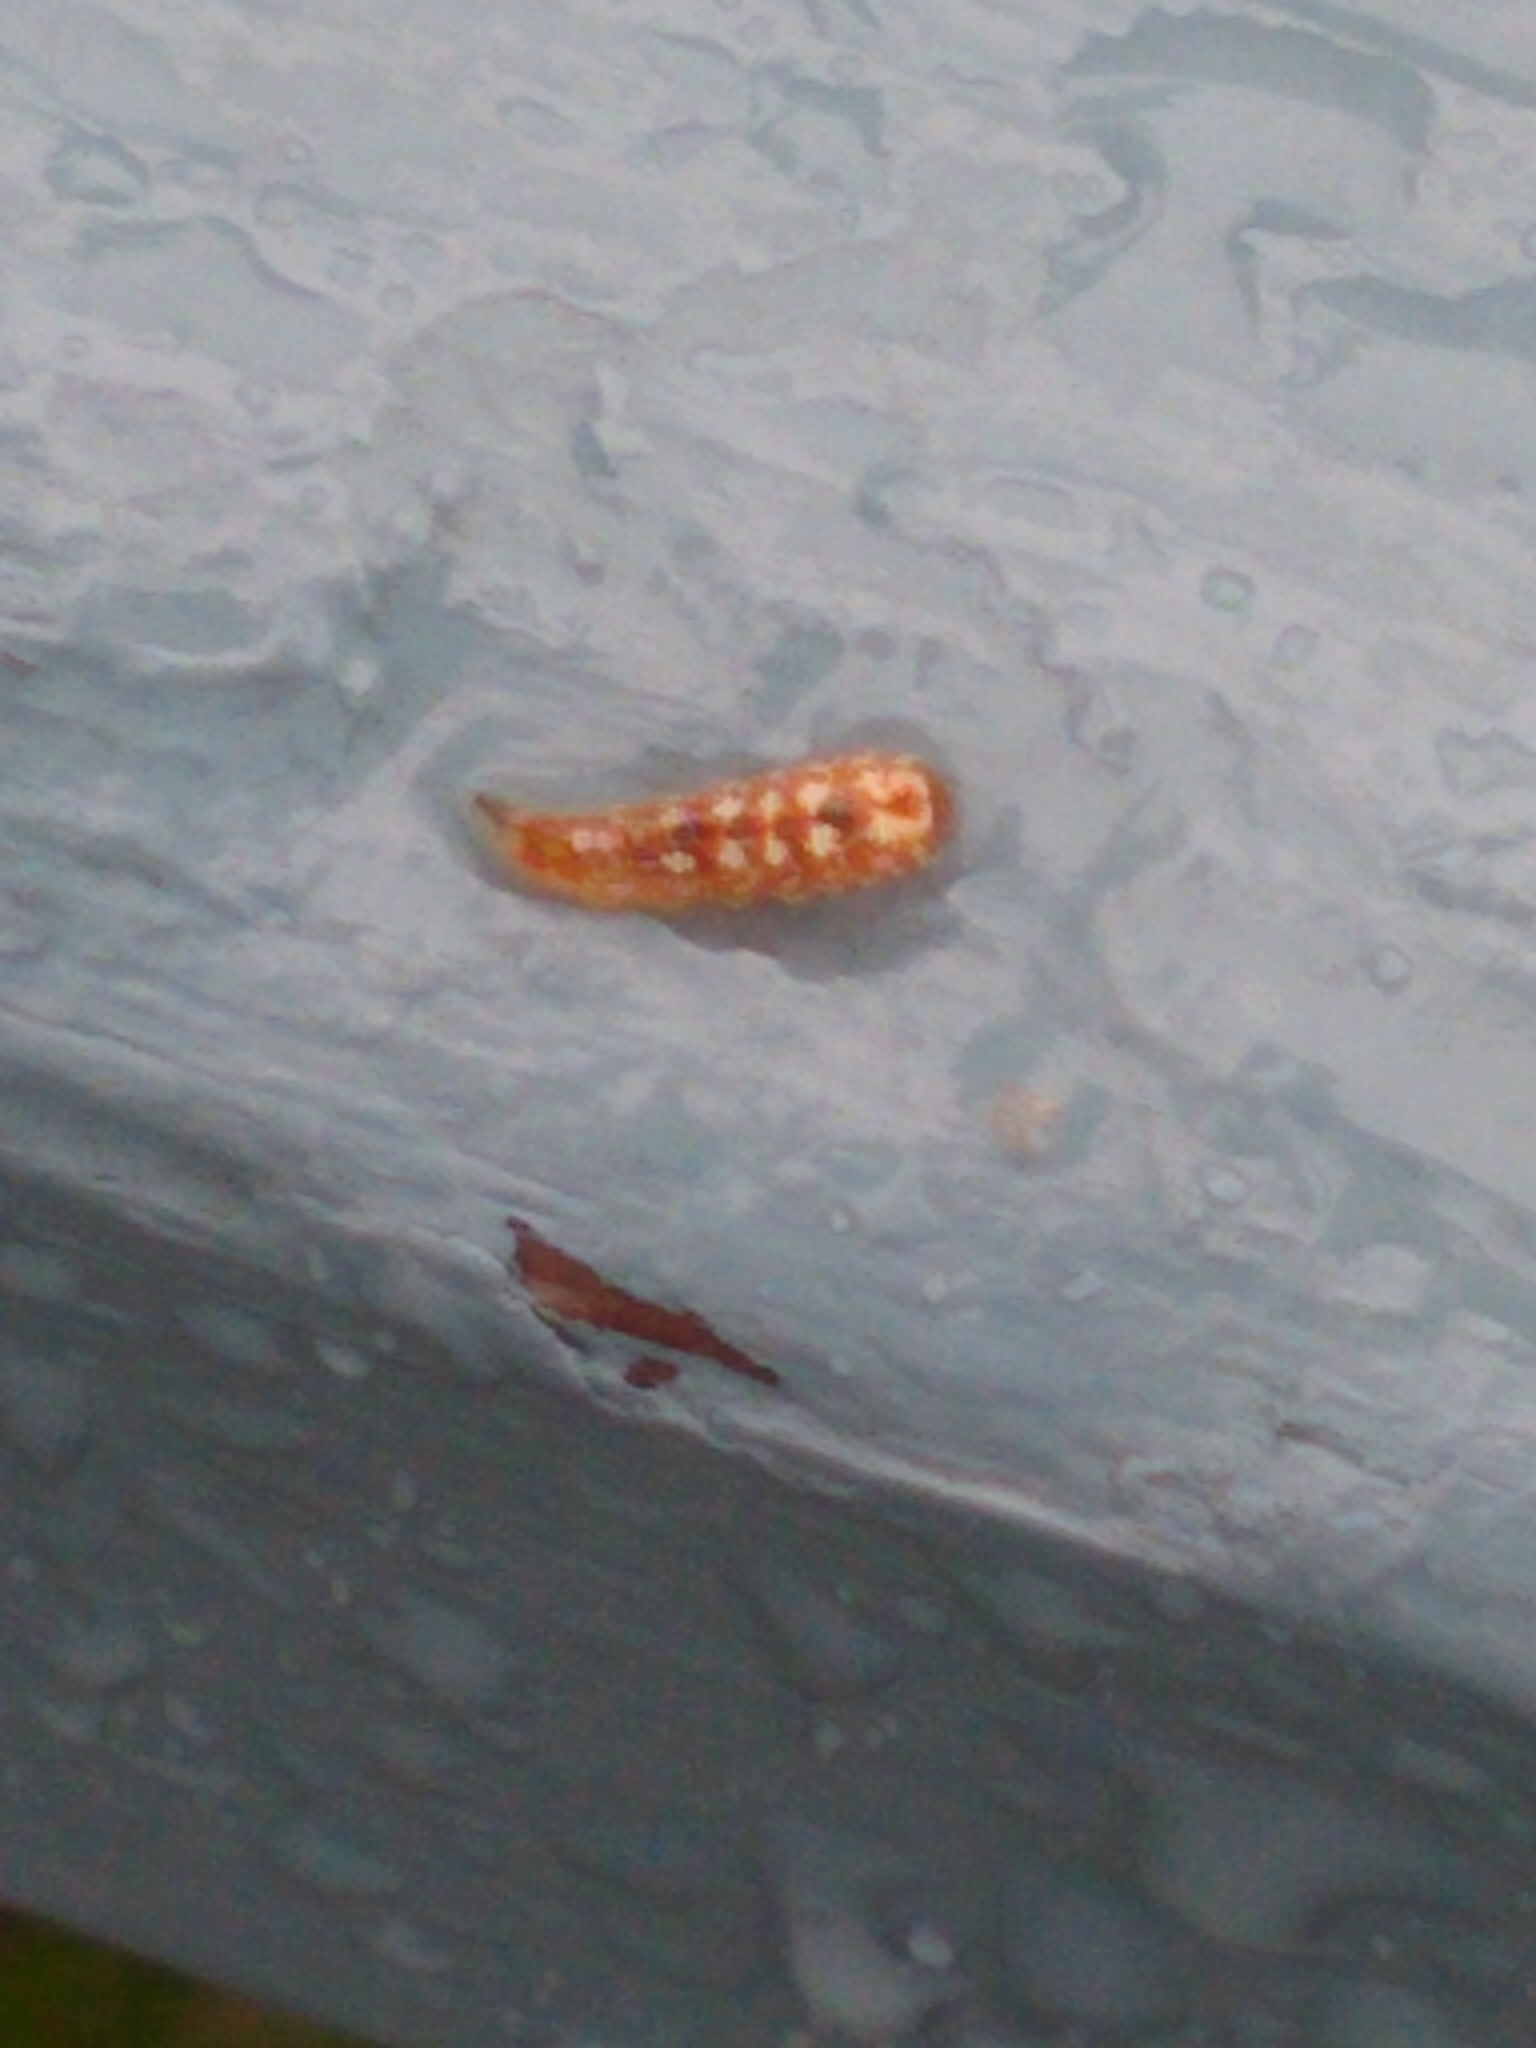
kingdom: Animalia
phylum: Arthropoda
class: Insecta
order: Diptera
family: Syrphidae
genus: Syrphus
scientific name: Syrphus
